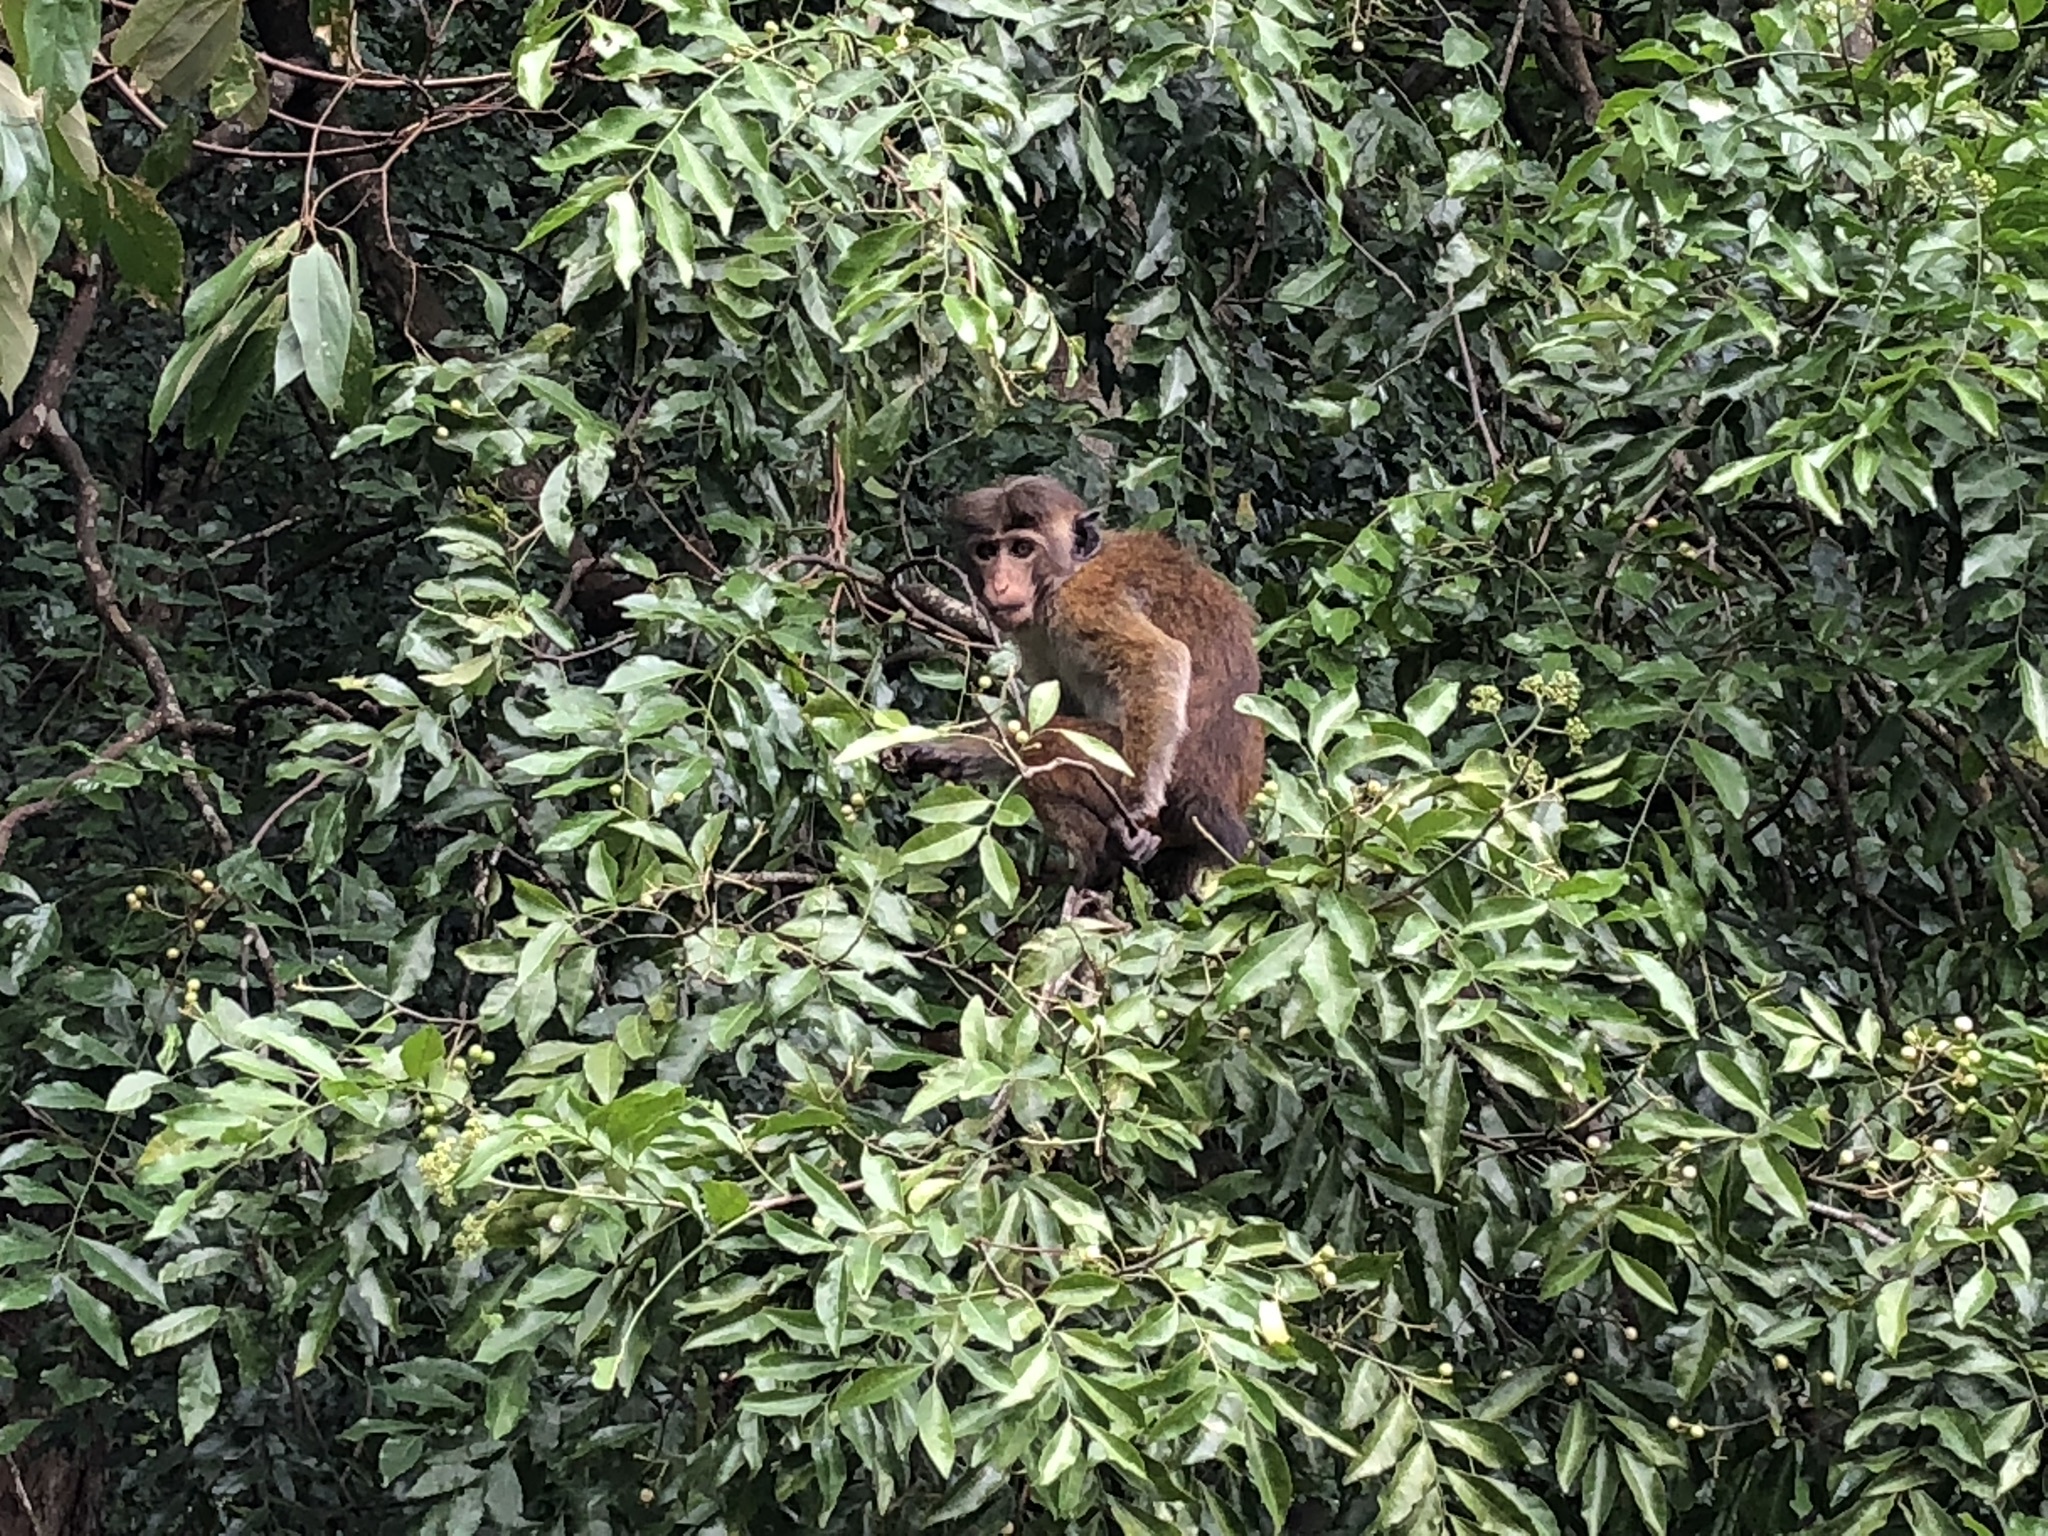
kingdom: Animalia
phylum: Chordata
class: Mammalia
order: Primates
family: Cercopithecidae
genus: Macaca
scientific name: Macaca sinica
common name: Toque macaque
